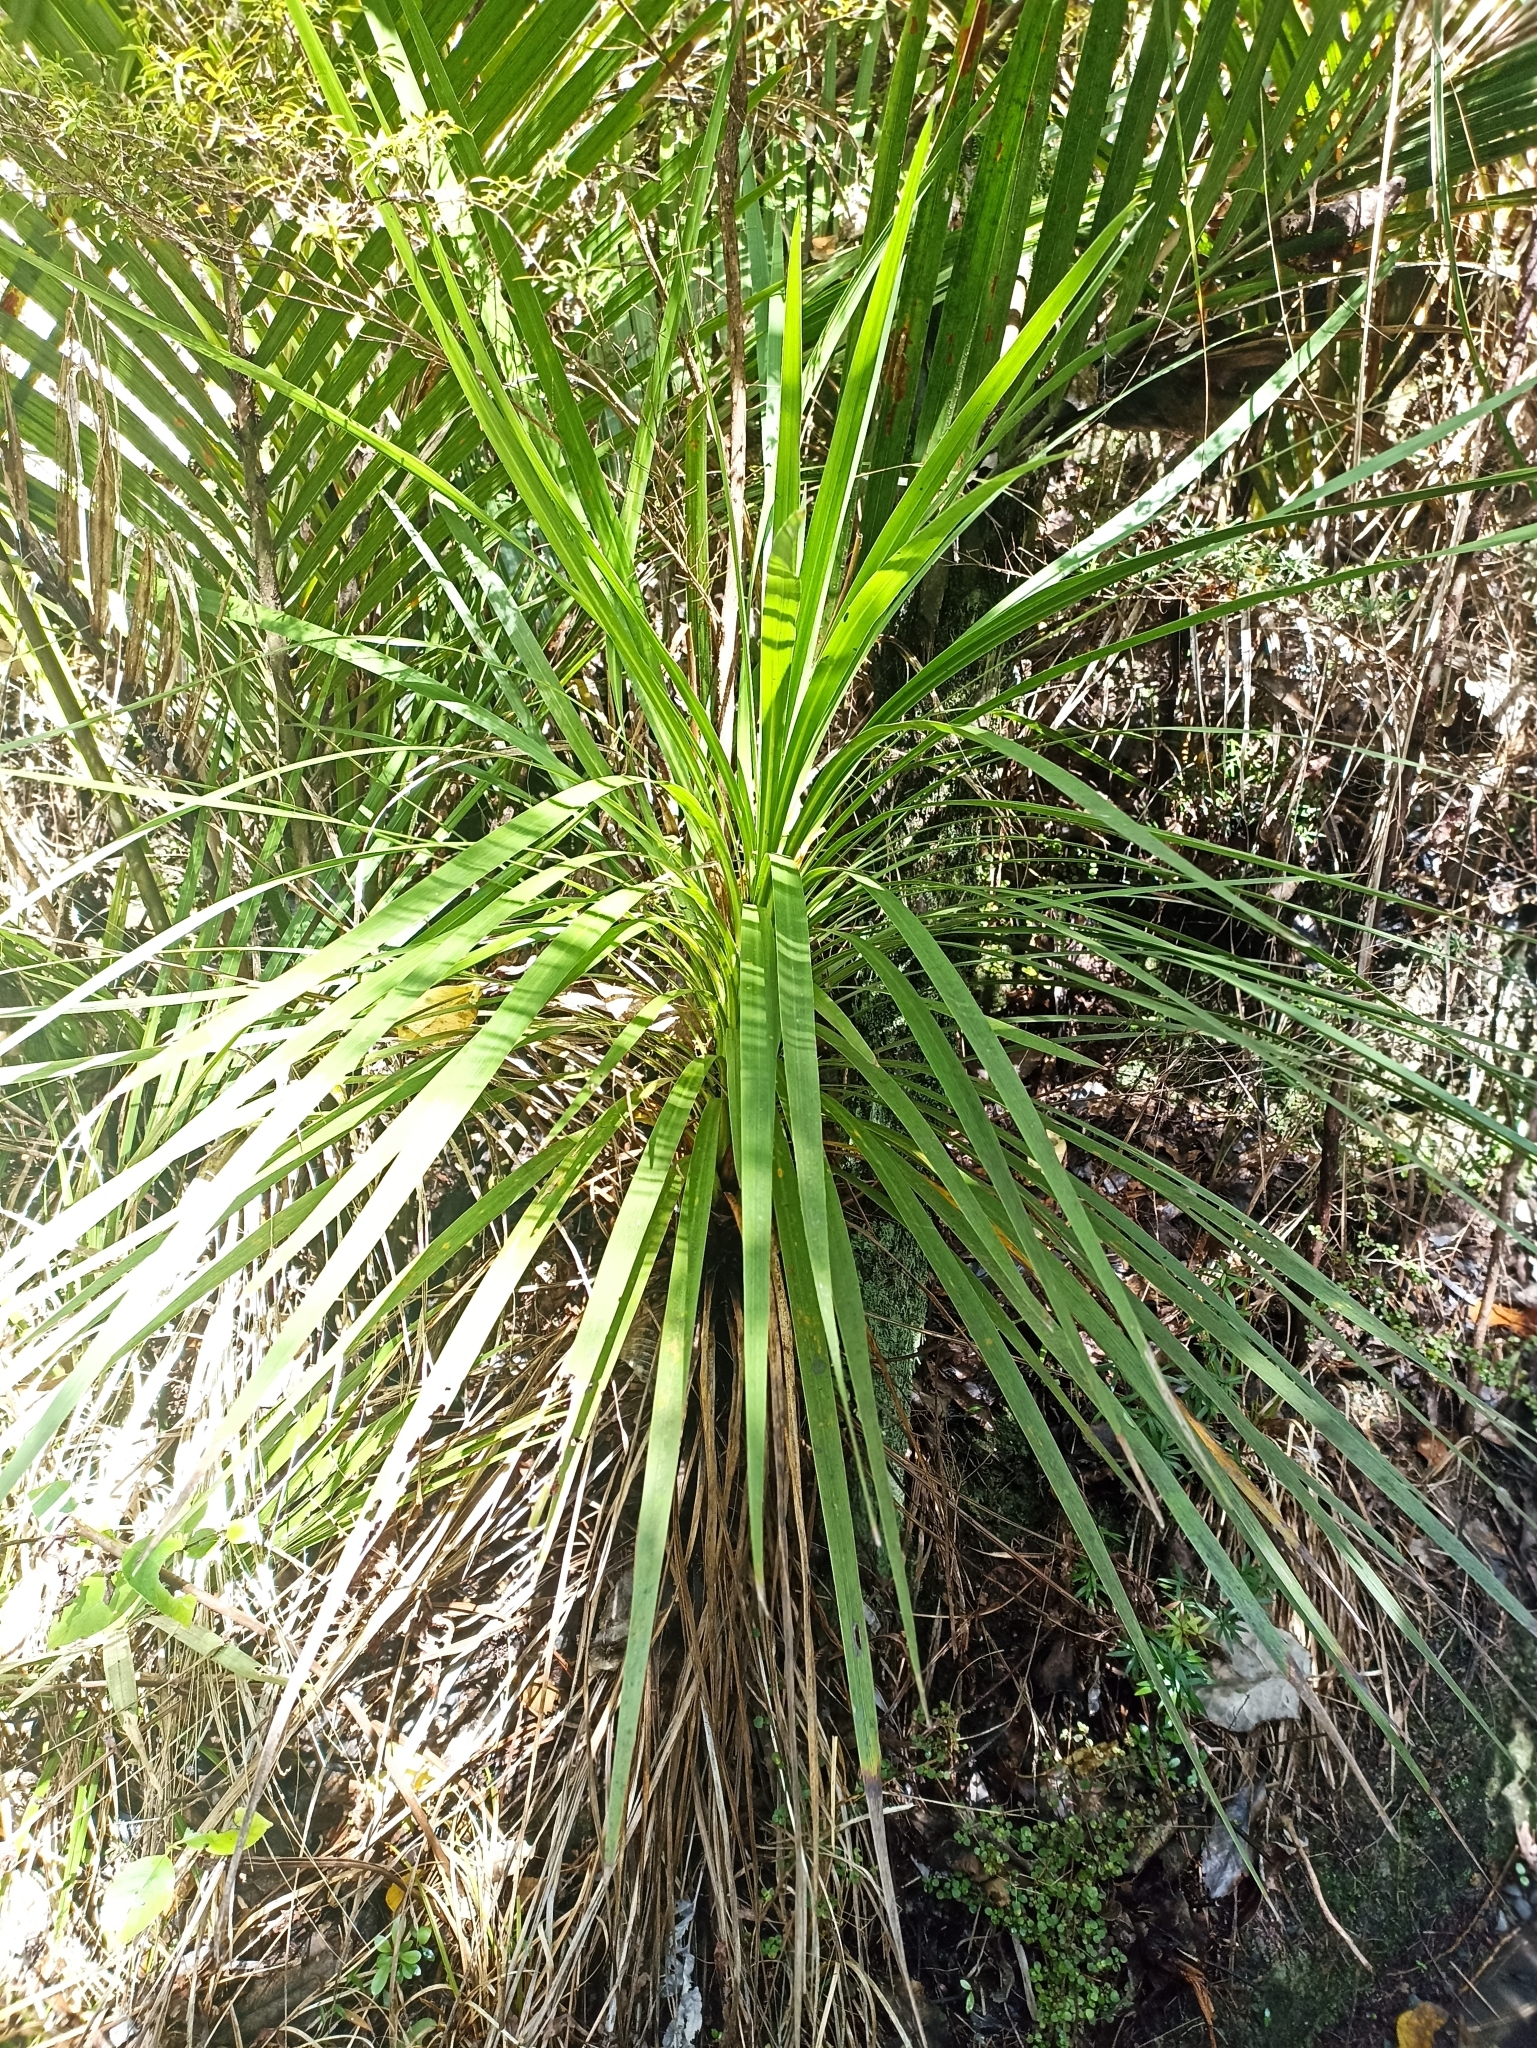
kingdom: Plantae
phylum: Tracheophyta
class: Liliopsida
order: Asparagales
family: Asparagaceae
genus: Cordyline
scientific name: Cordyline australis
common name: Cabbage-palm
